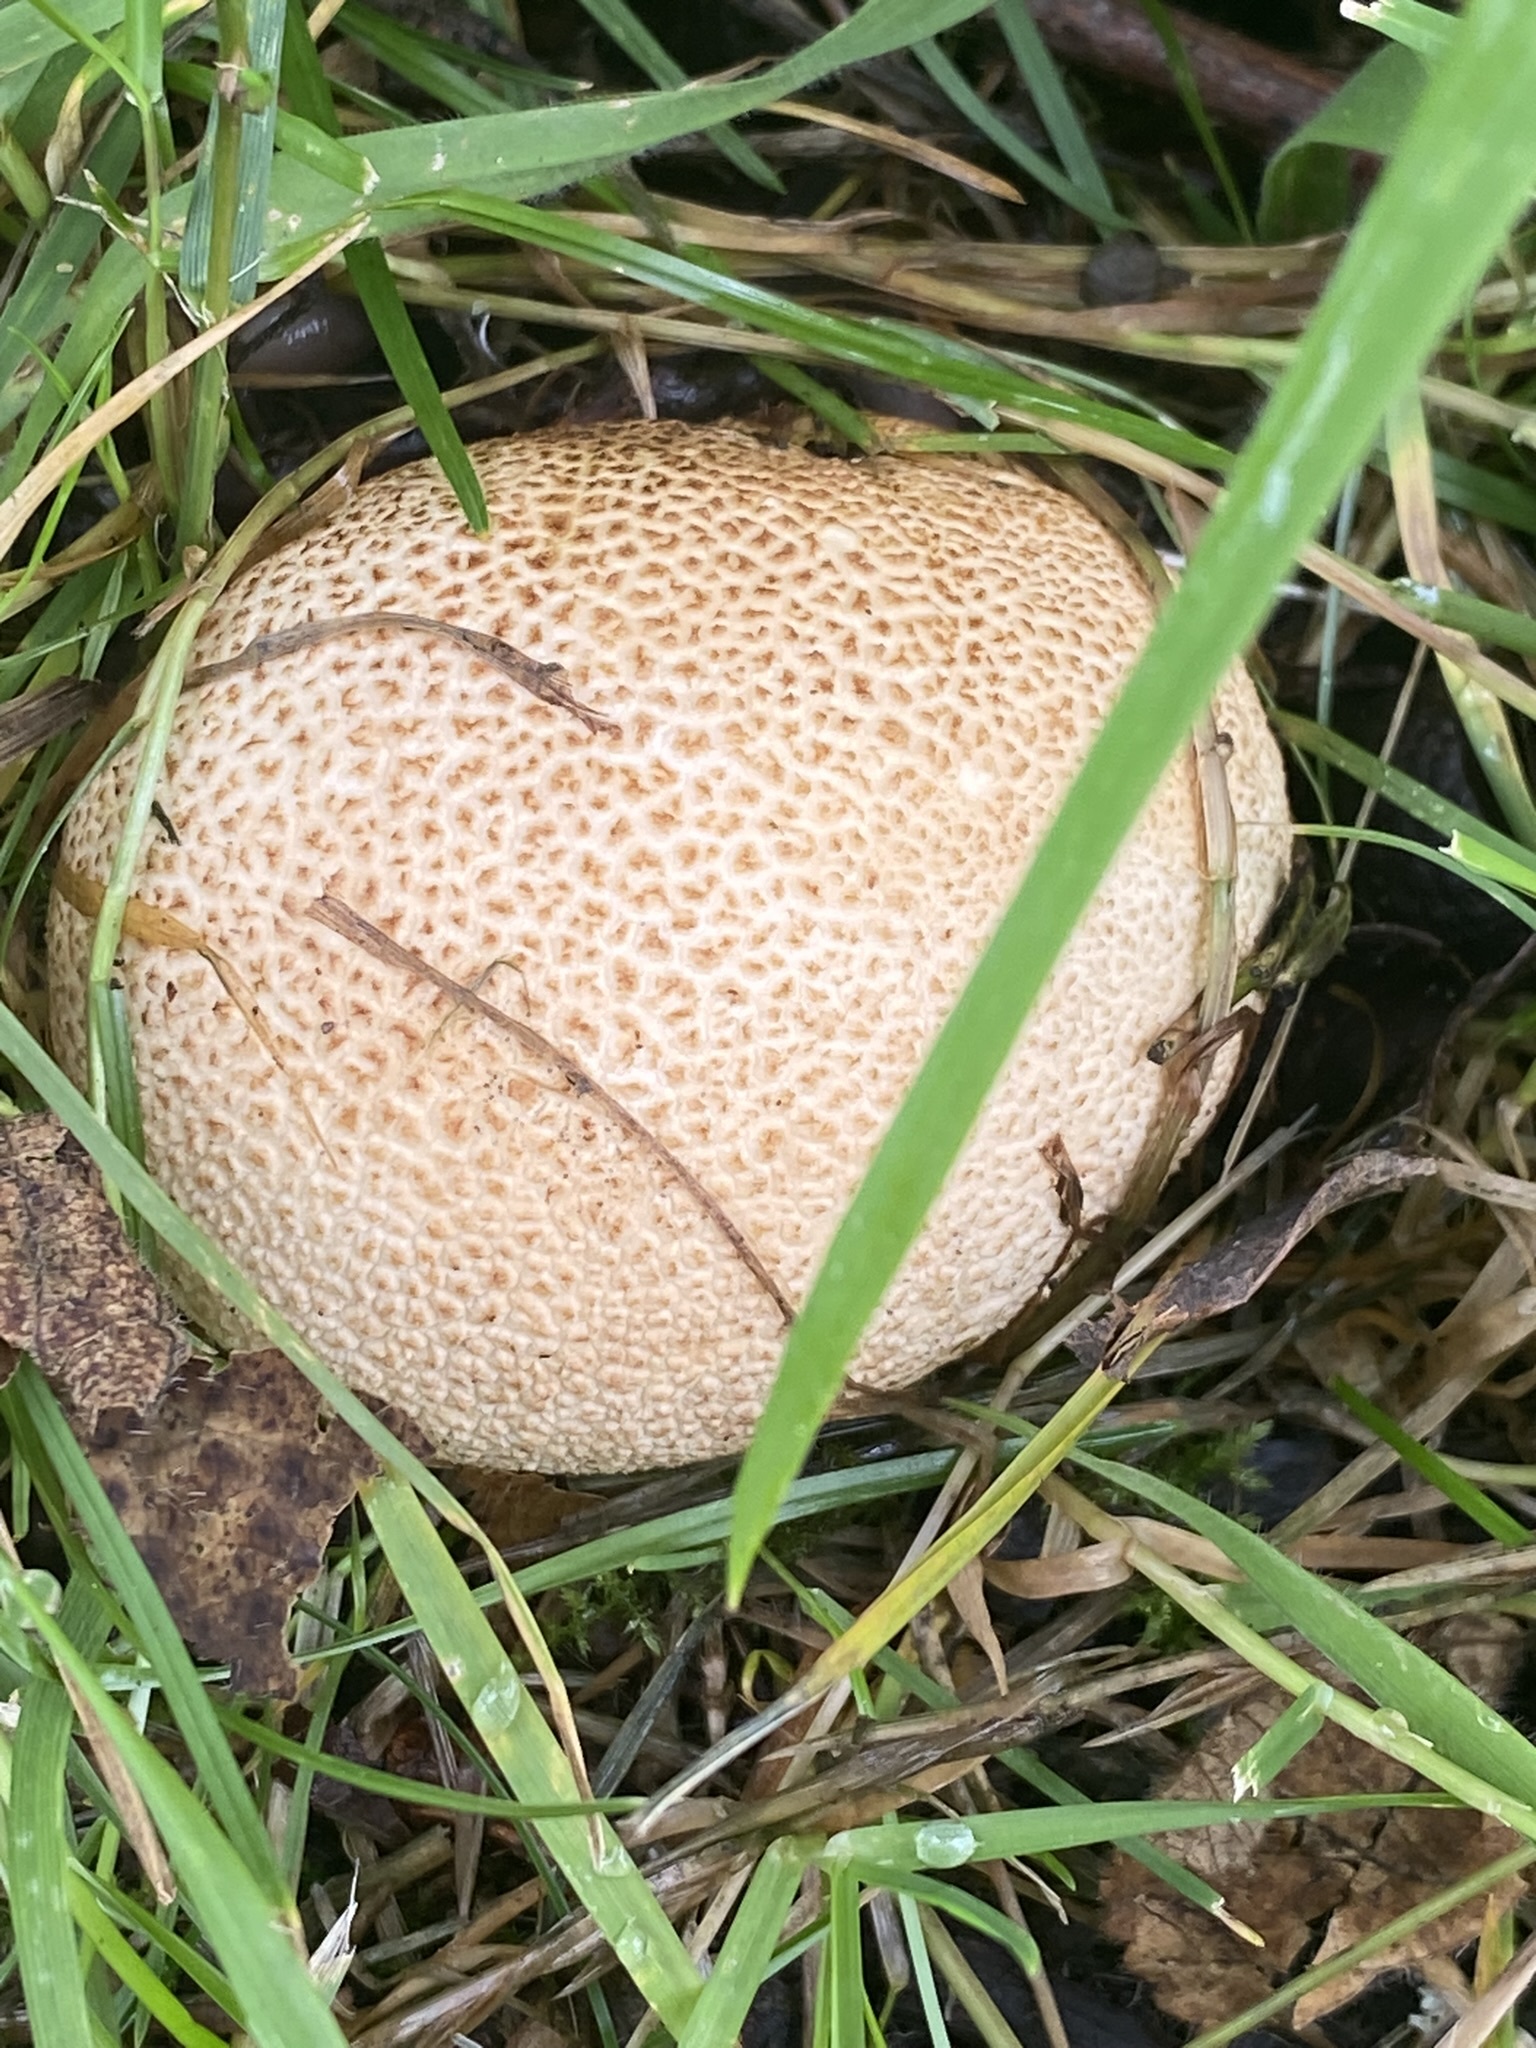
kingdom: Fungi
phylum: Basidiomycota
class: Agaricomycetes
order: Boletales
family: Sclerodermataceae
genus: Scleroderma
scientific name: Scleroderma citrinum
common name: Common earthball
